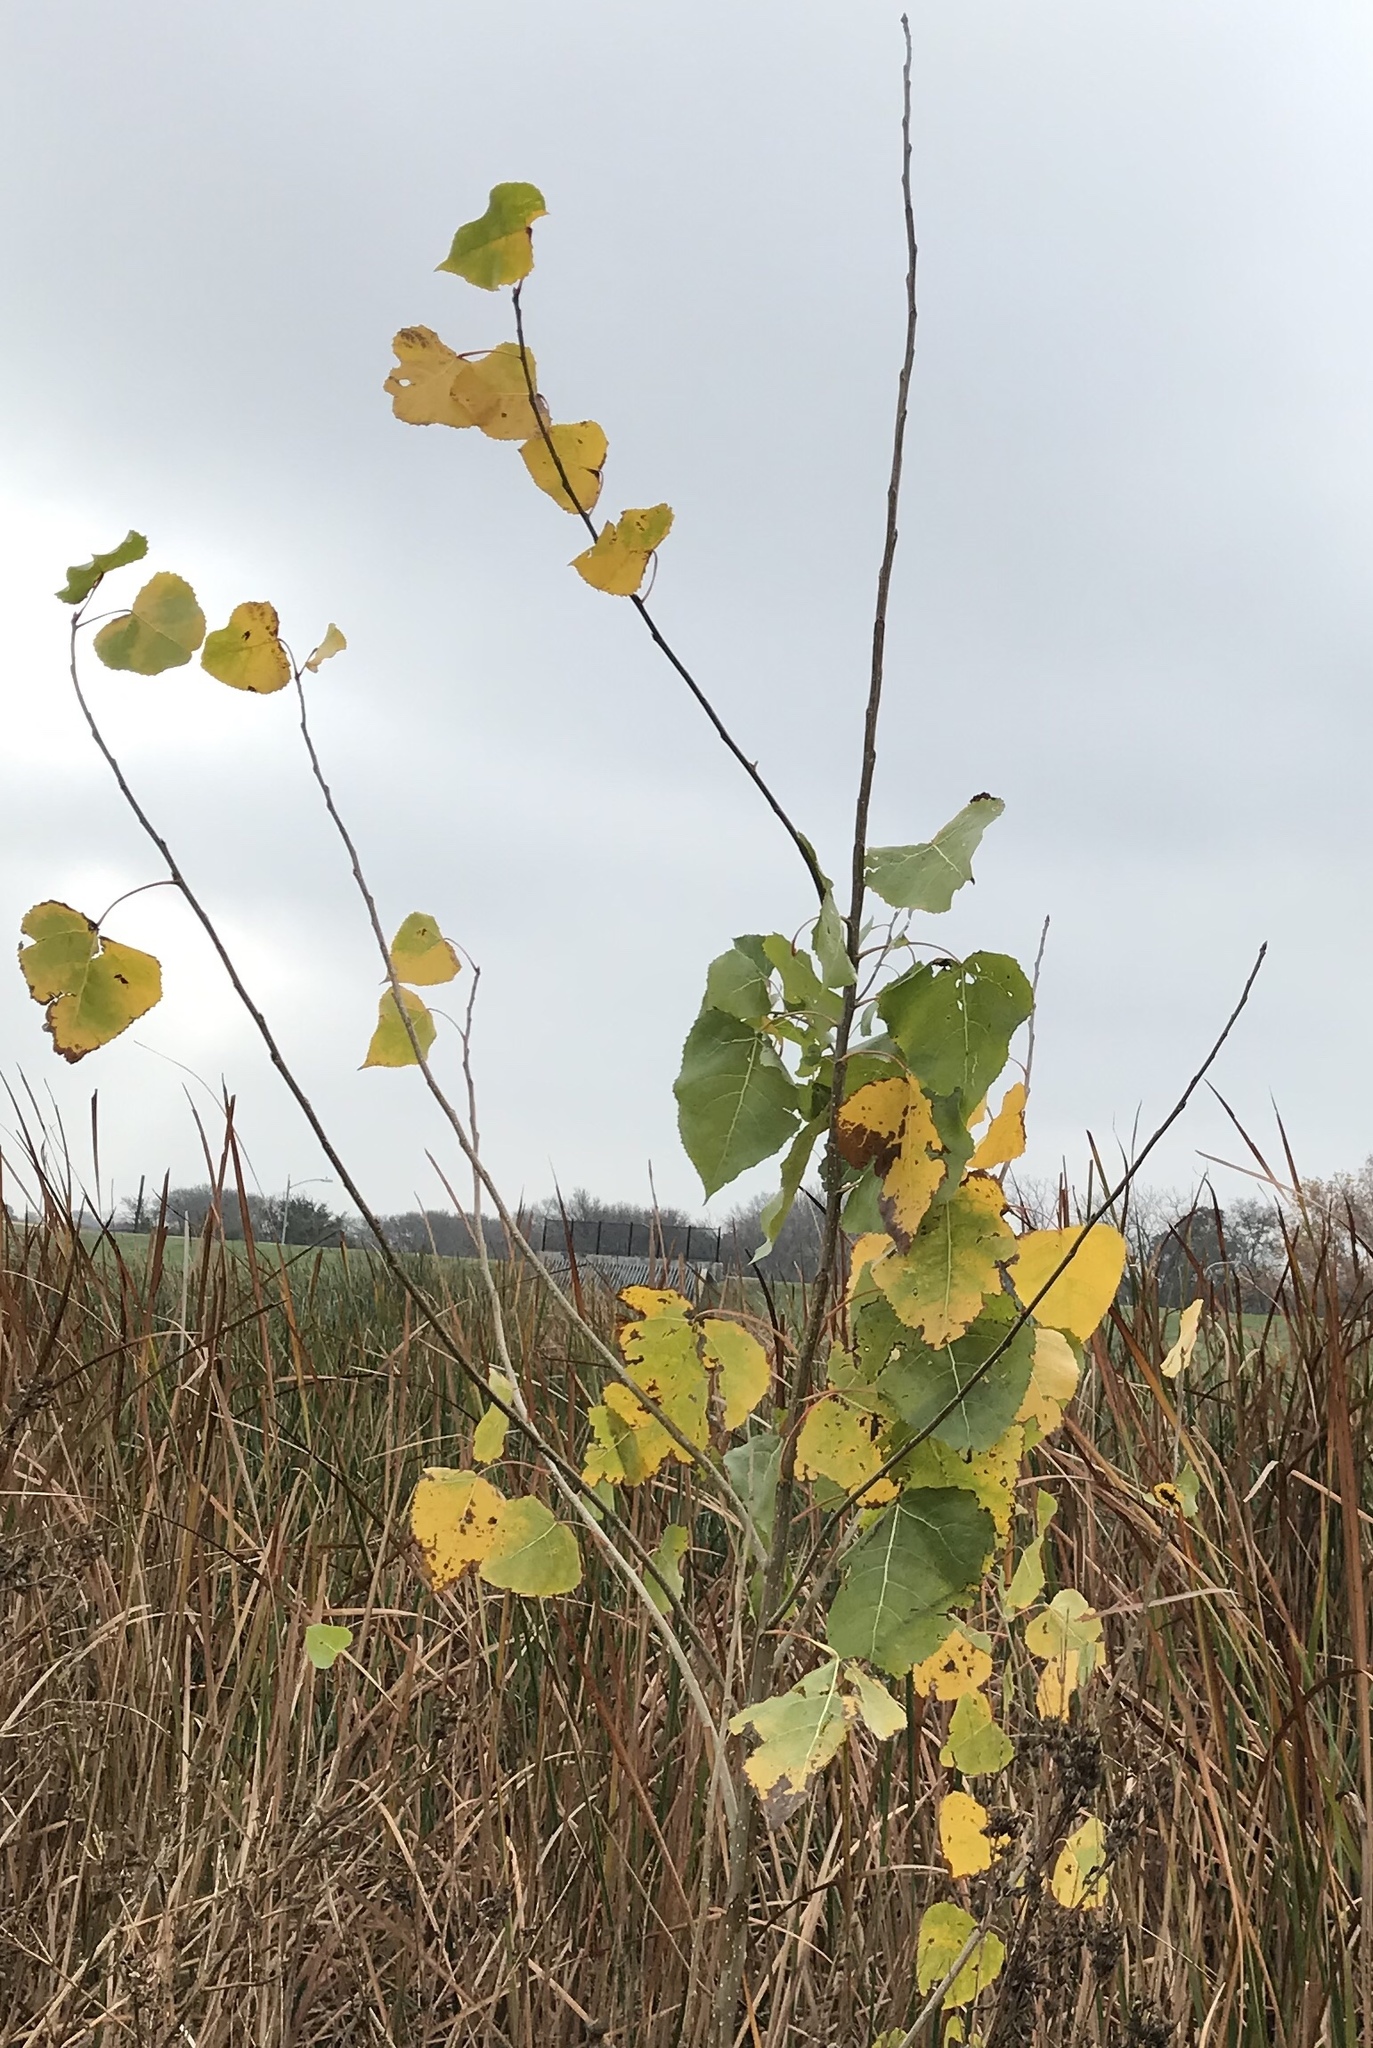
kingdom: Plantae
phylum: Tracheophyta
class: Magnoliopsida
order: Malpighiales
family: Salicaceae
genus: Populus
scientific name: Populus deltoides
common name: Eastern cottonwood
